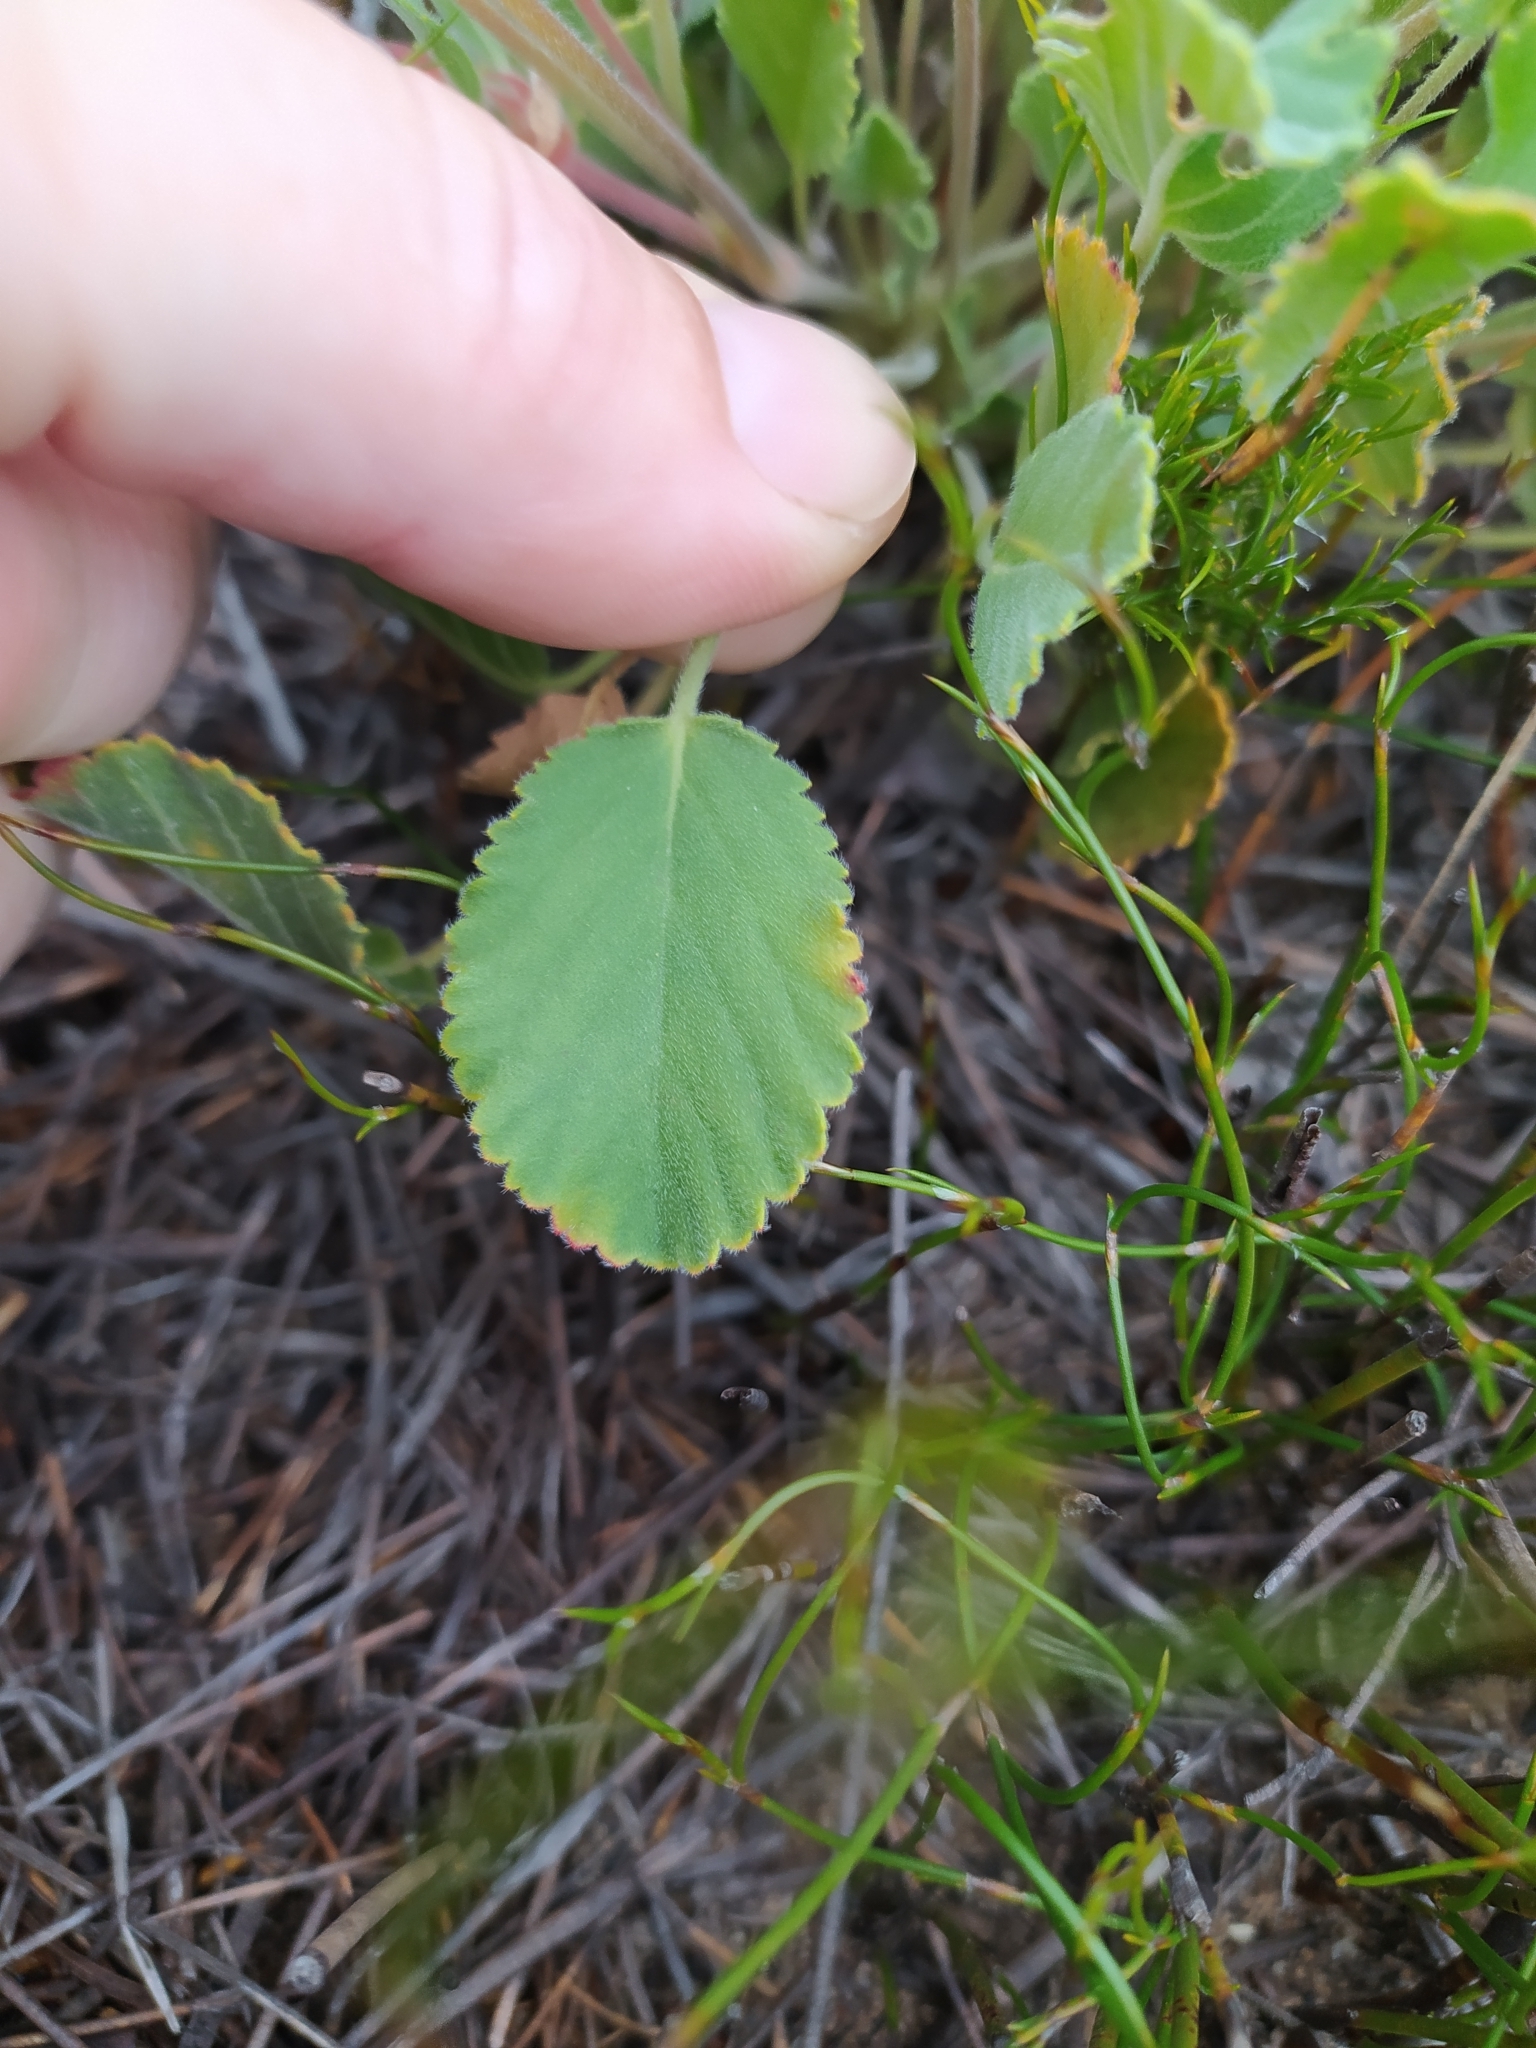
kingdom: Plantae
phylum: Tracheophyta
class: Magnoliopsida
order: Geraniales
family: Geraniaceae
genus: Pelargonium
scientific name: Pelargonium ovale
